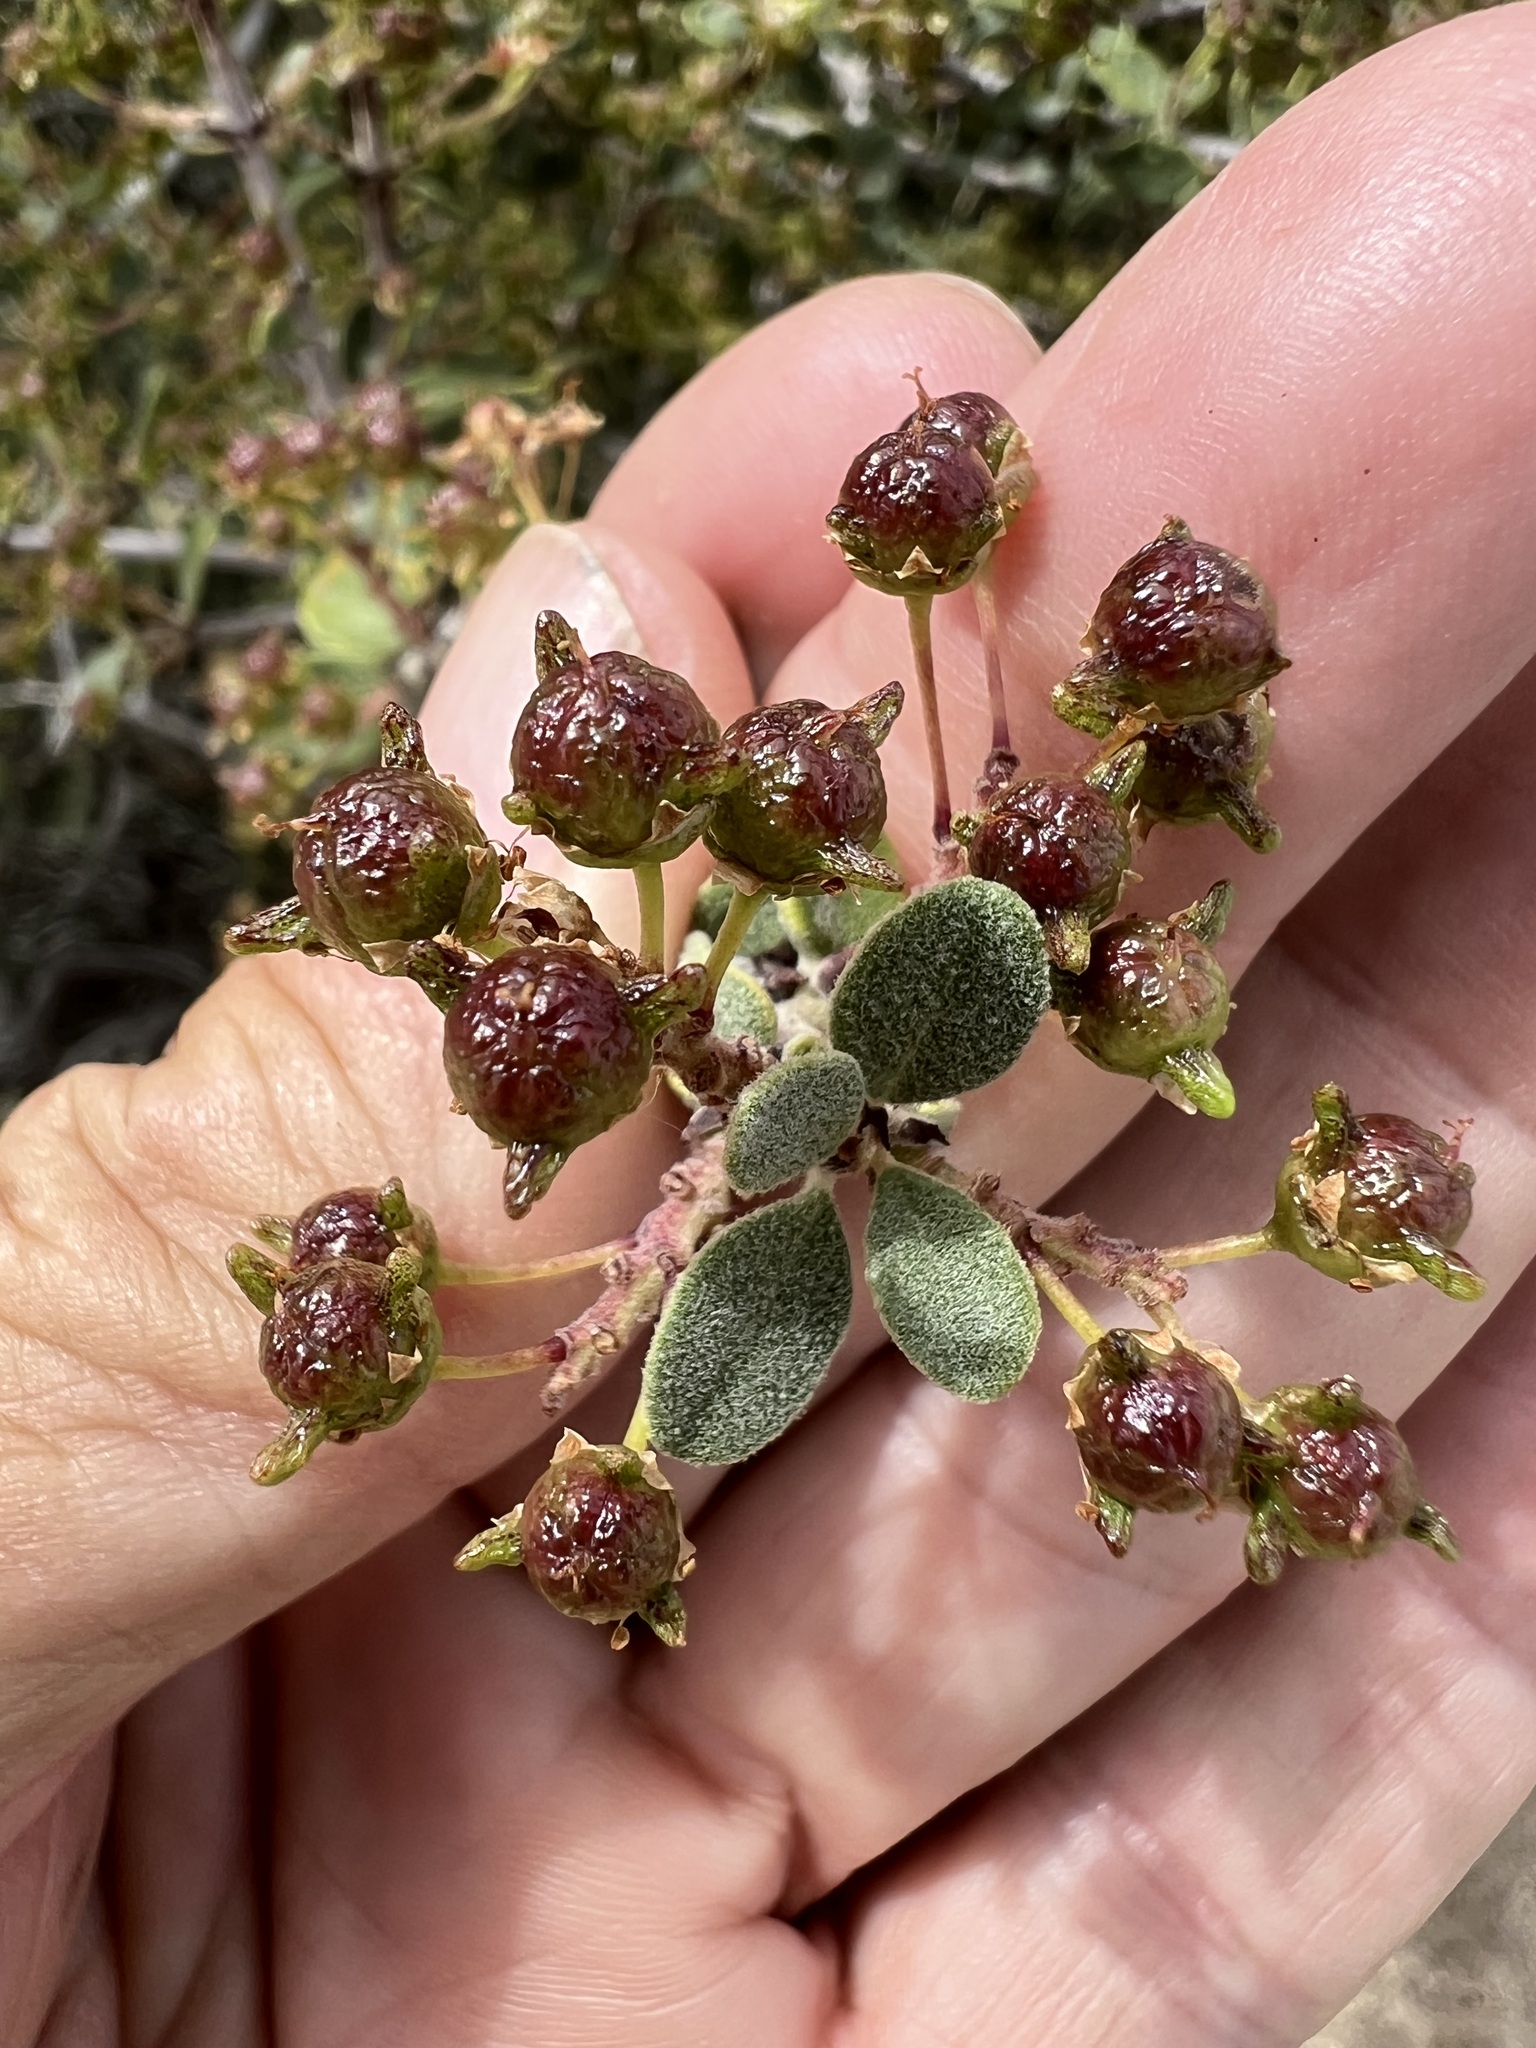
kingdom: Plantae
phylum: Tracheophyta
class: Magnoliopsida
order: Rosales
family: Rhamnaceae
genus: Ceanothus
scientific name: Ceanothus pauciflorus
